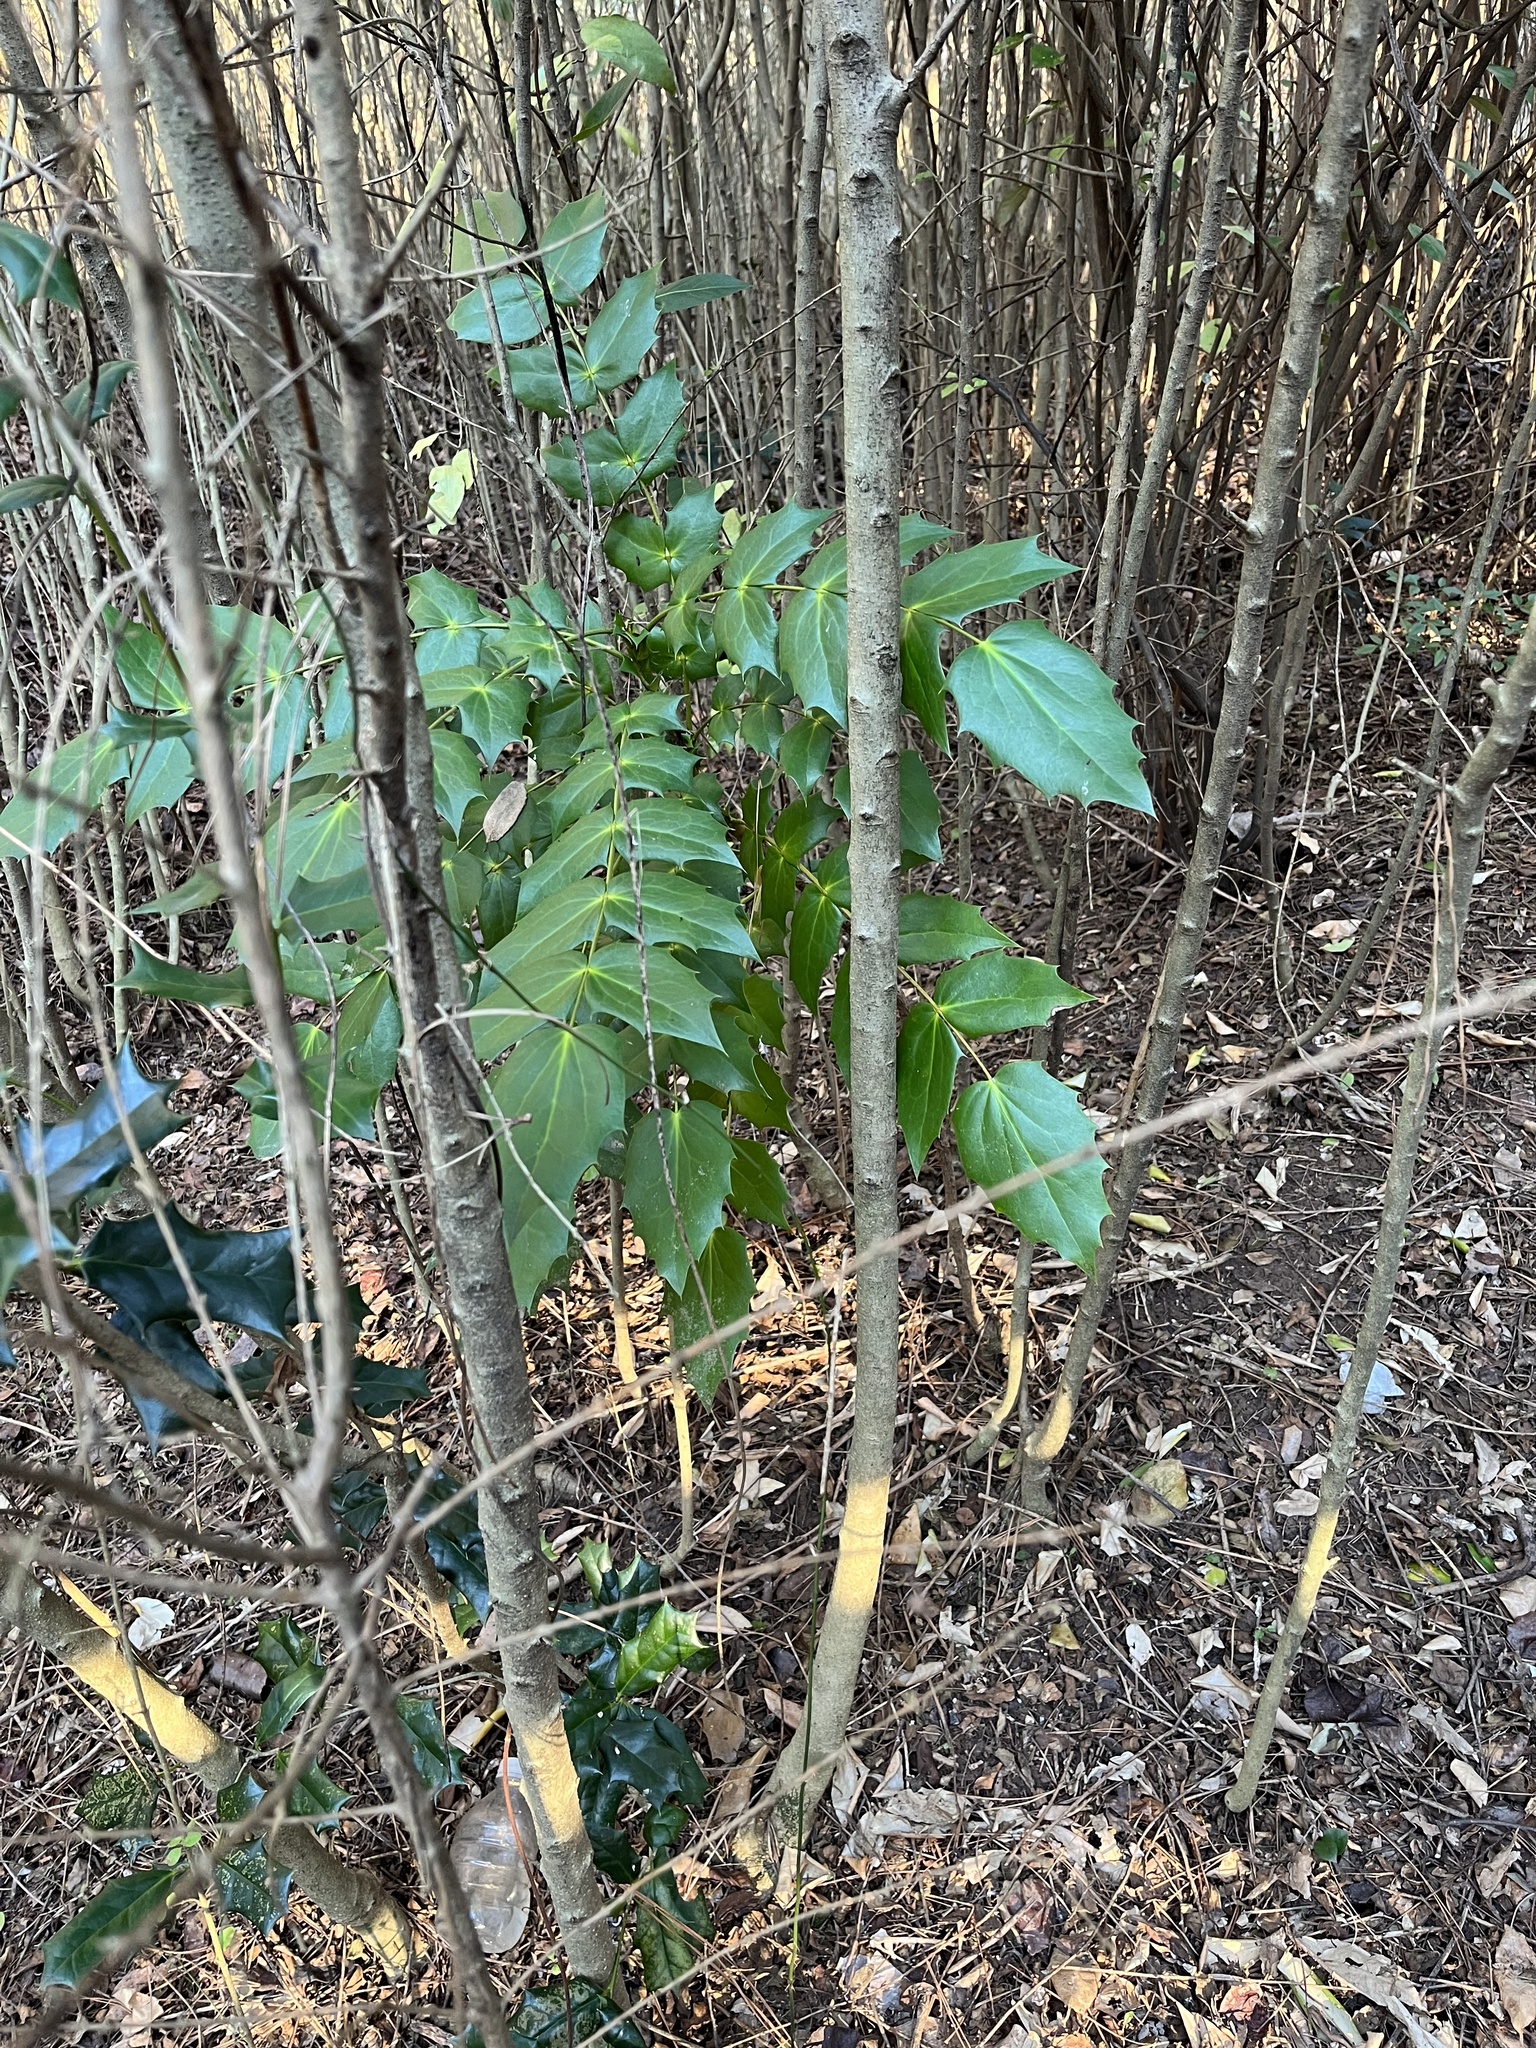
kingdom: Plantae
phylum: Tracheophyta
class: Magnoliopsida
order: Ranunculales
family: Berberidaceae
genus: Mahonia
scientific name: Mahonia bealei
